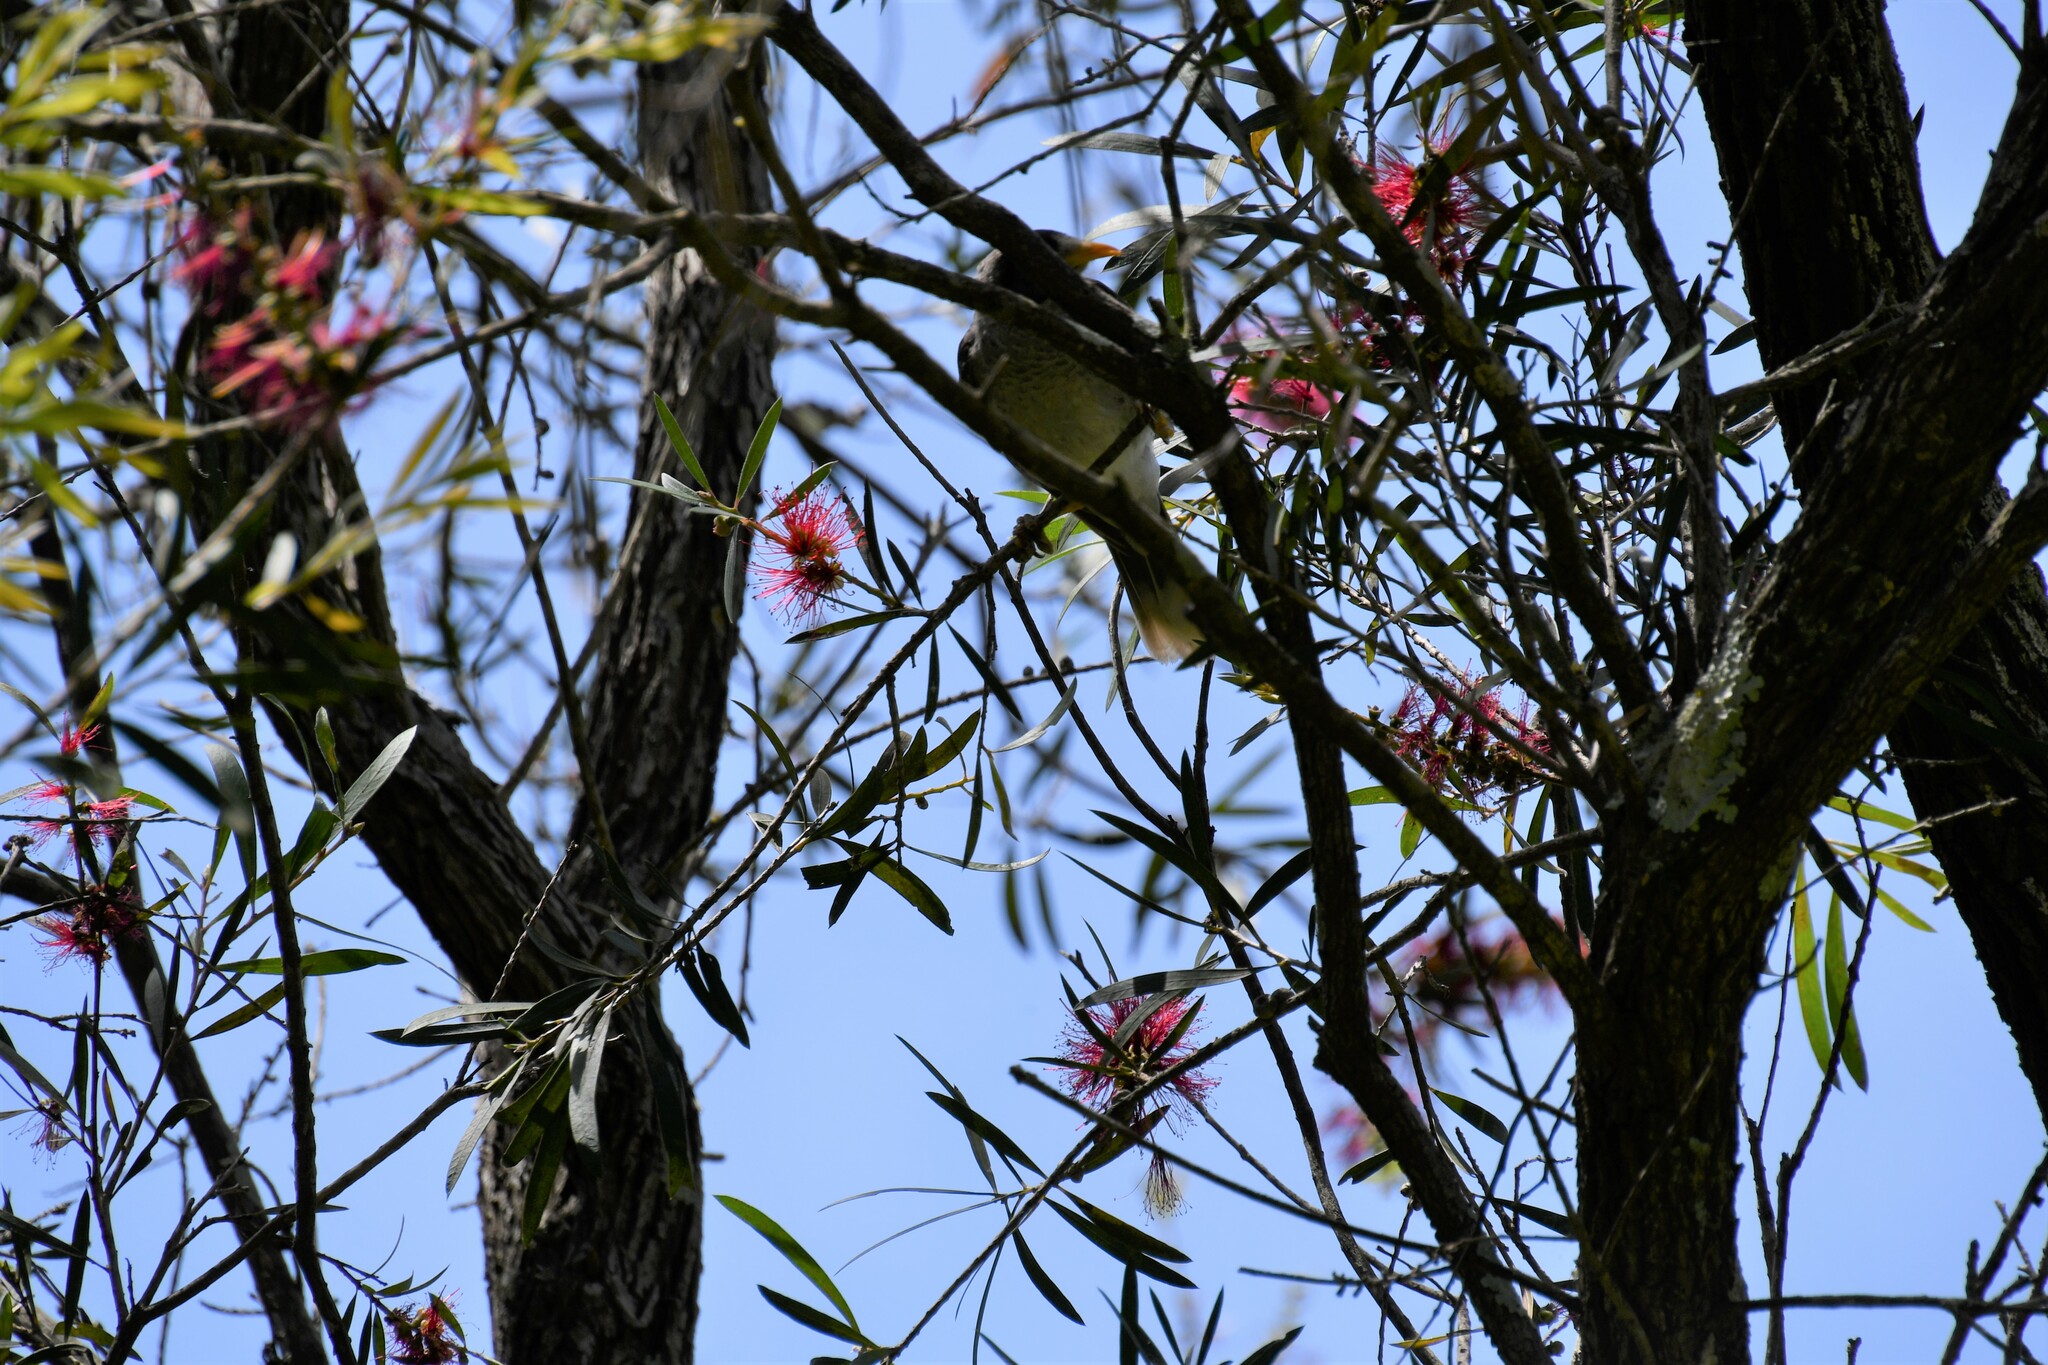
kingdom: Animalia
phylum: Chordata
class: Aves
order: Passeriformes
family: Meliphagidae
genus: Manorina
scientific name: Manorina melanocephala
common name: Noisy miner
